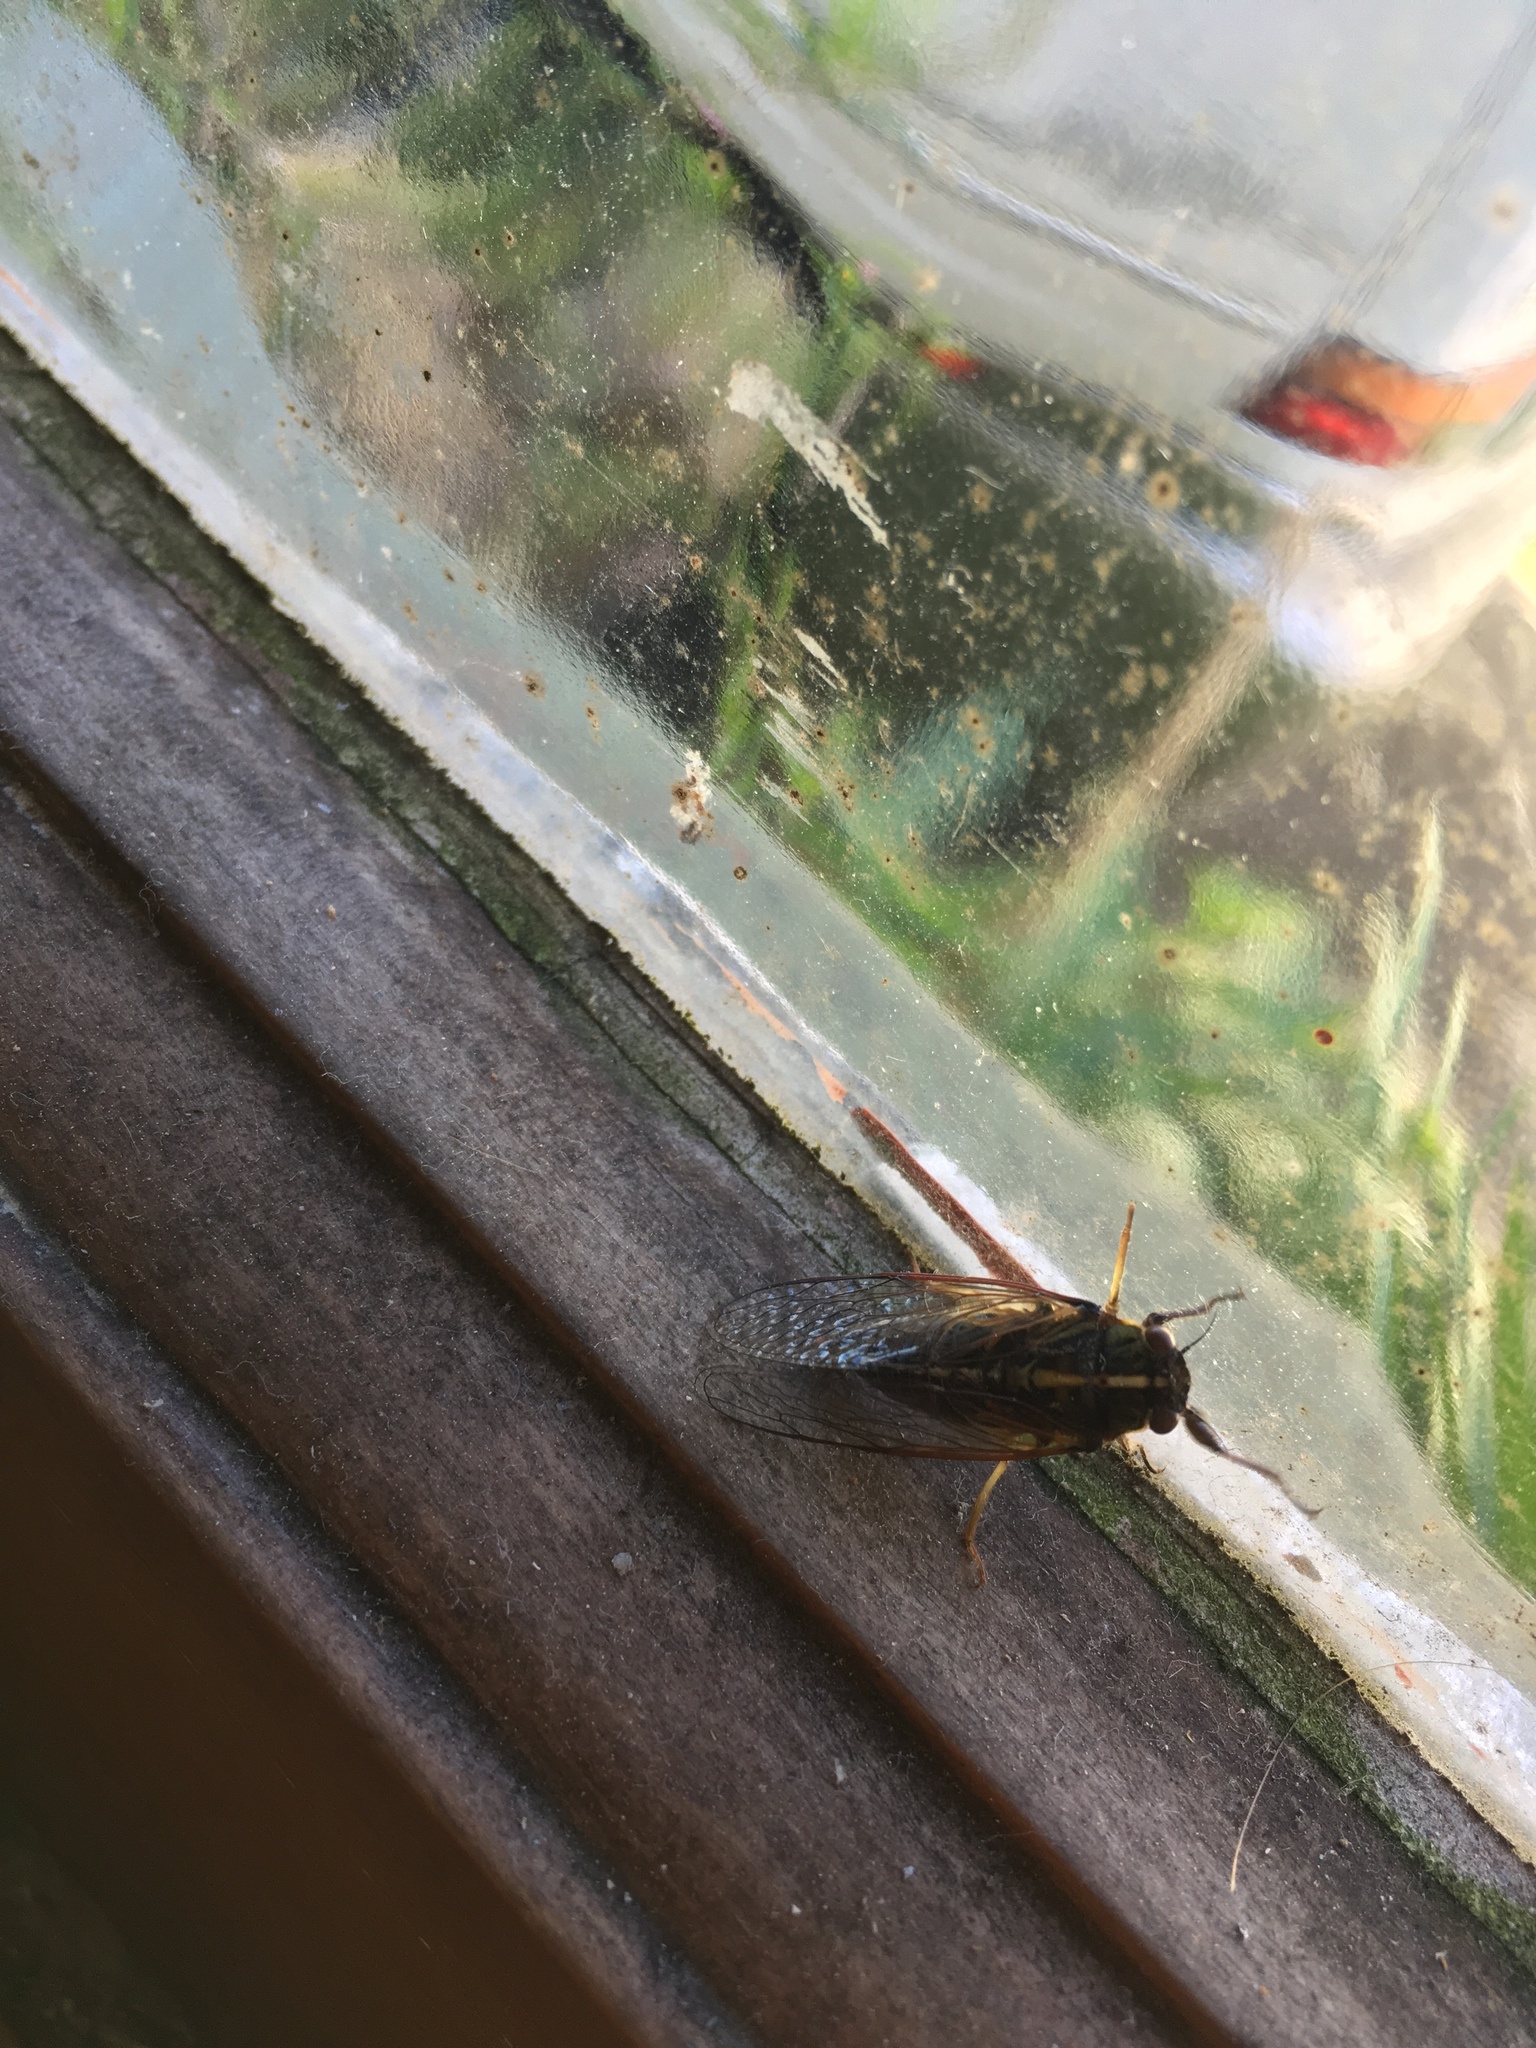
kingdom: Animalia
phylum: Arthropoda
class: Insecta
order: Hemiptera
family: Cicadidae
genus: Kikihia
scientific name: Kikihia muta
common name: Variable cicada
